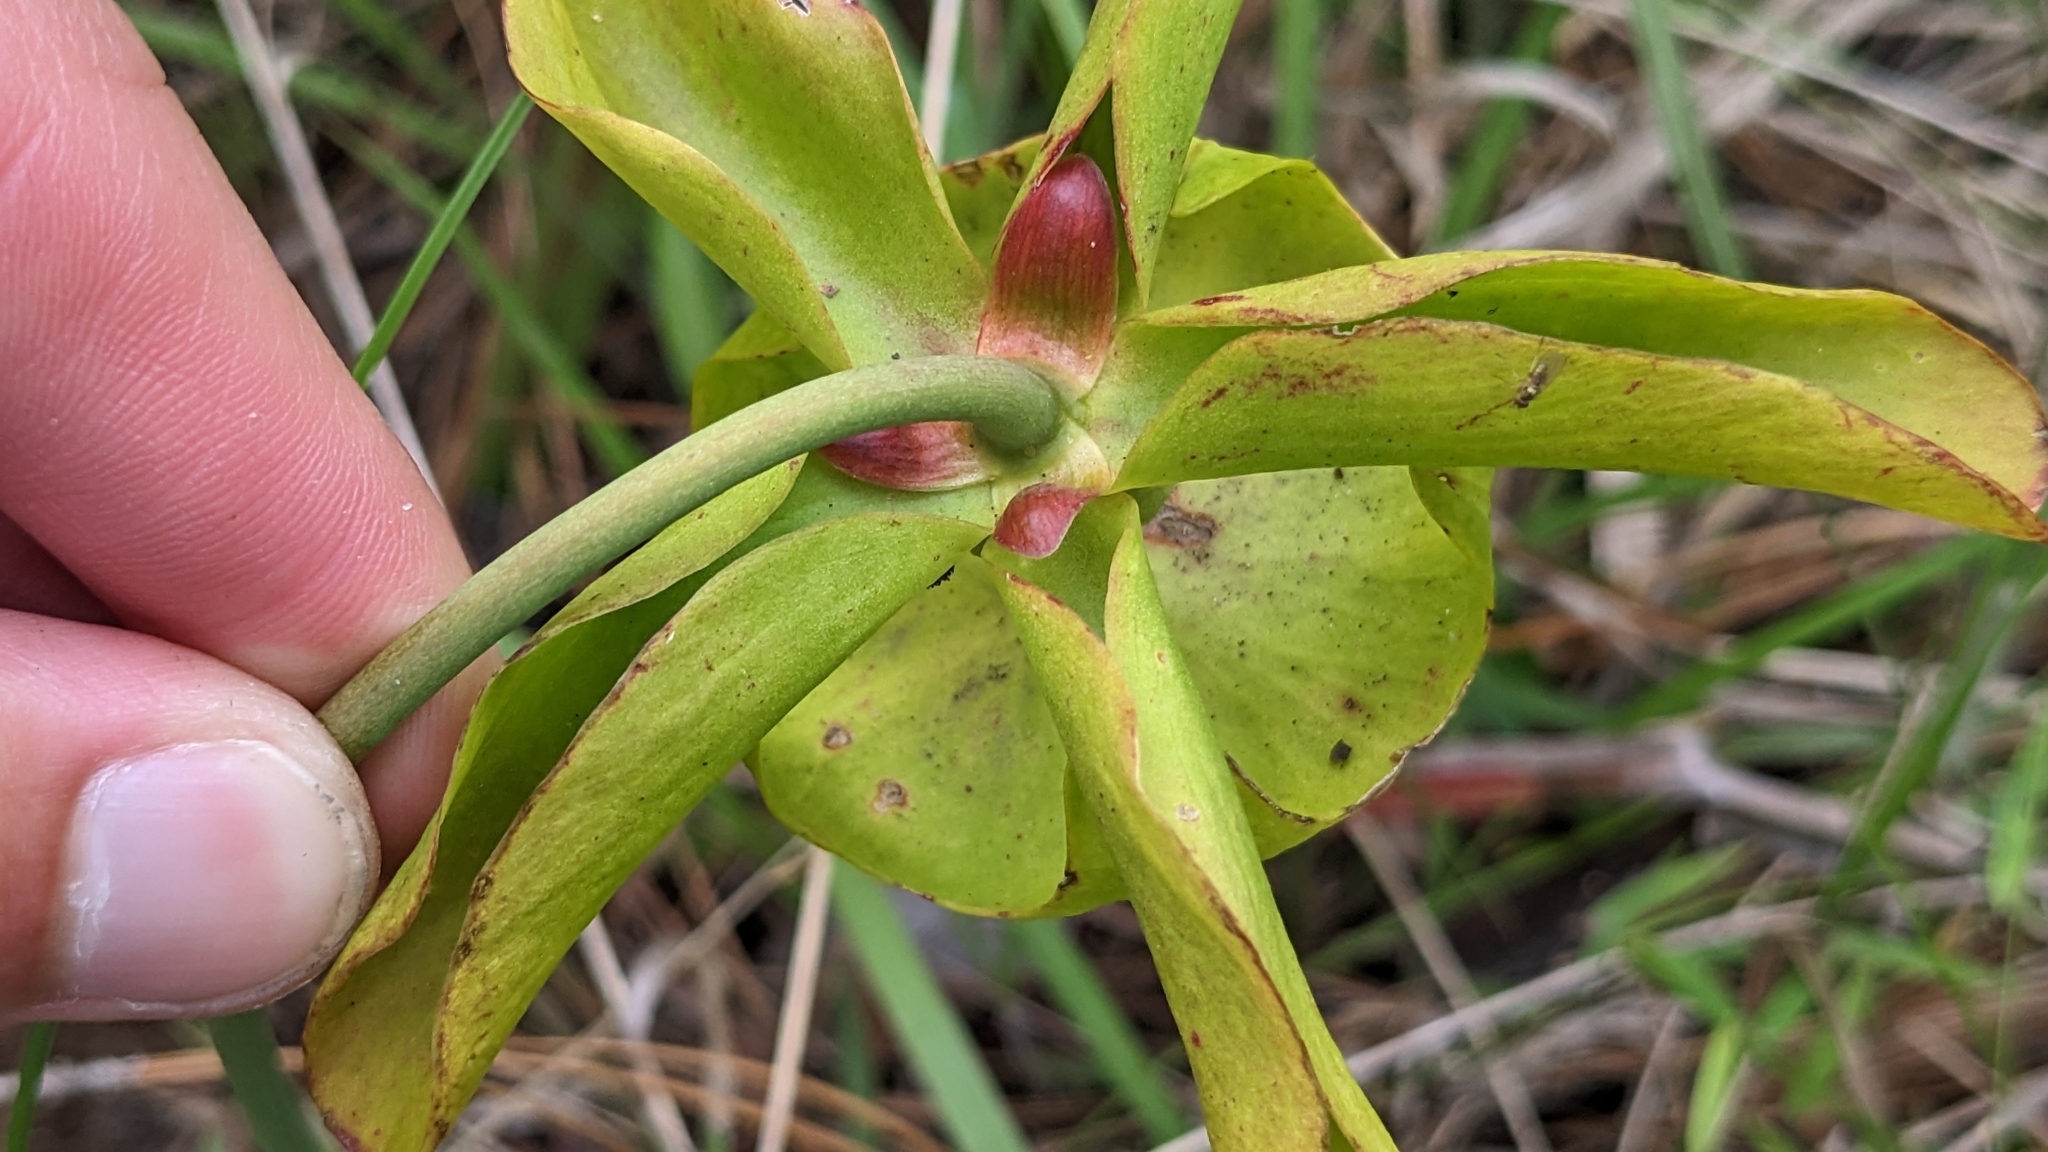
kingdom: Plantae
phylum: Tracheophyta
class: Magnoliopsida
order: Ericales
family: Sarraceniaceae
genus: Sarracenia
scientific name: Sarracenia alata
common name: Yellow trumpets
